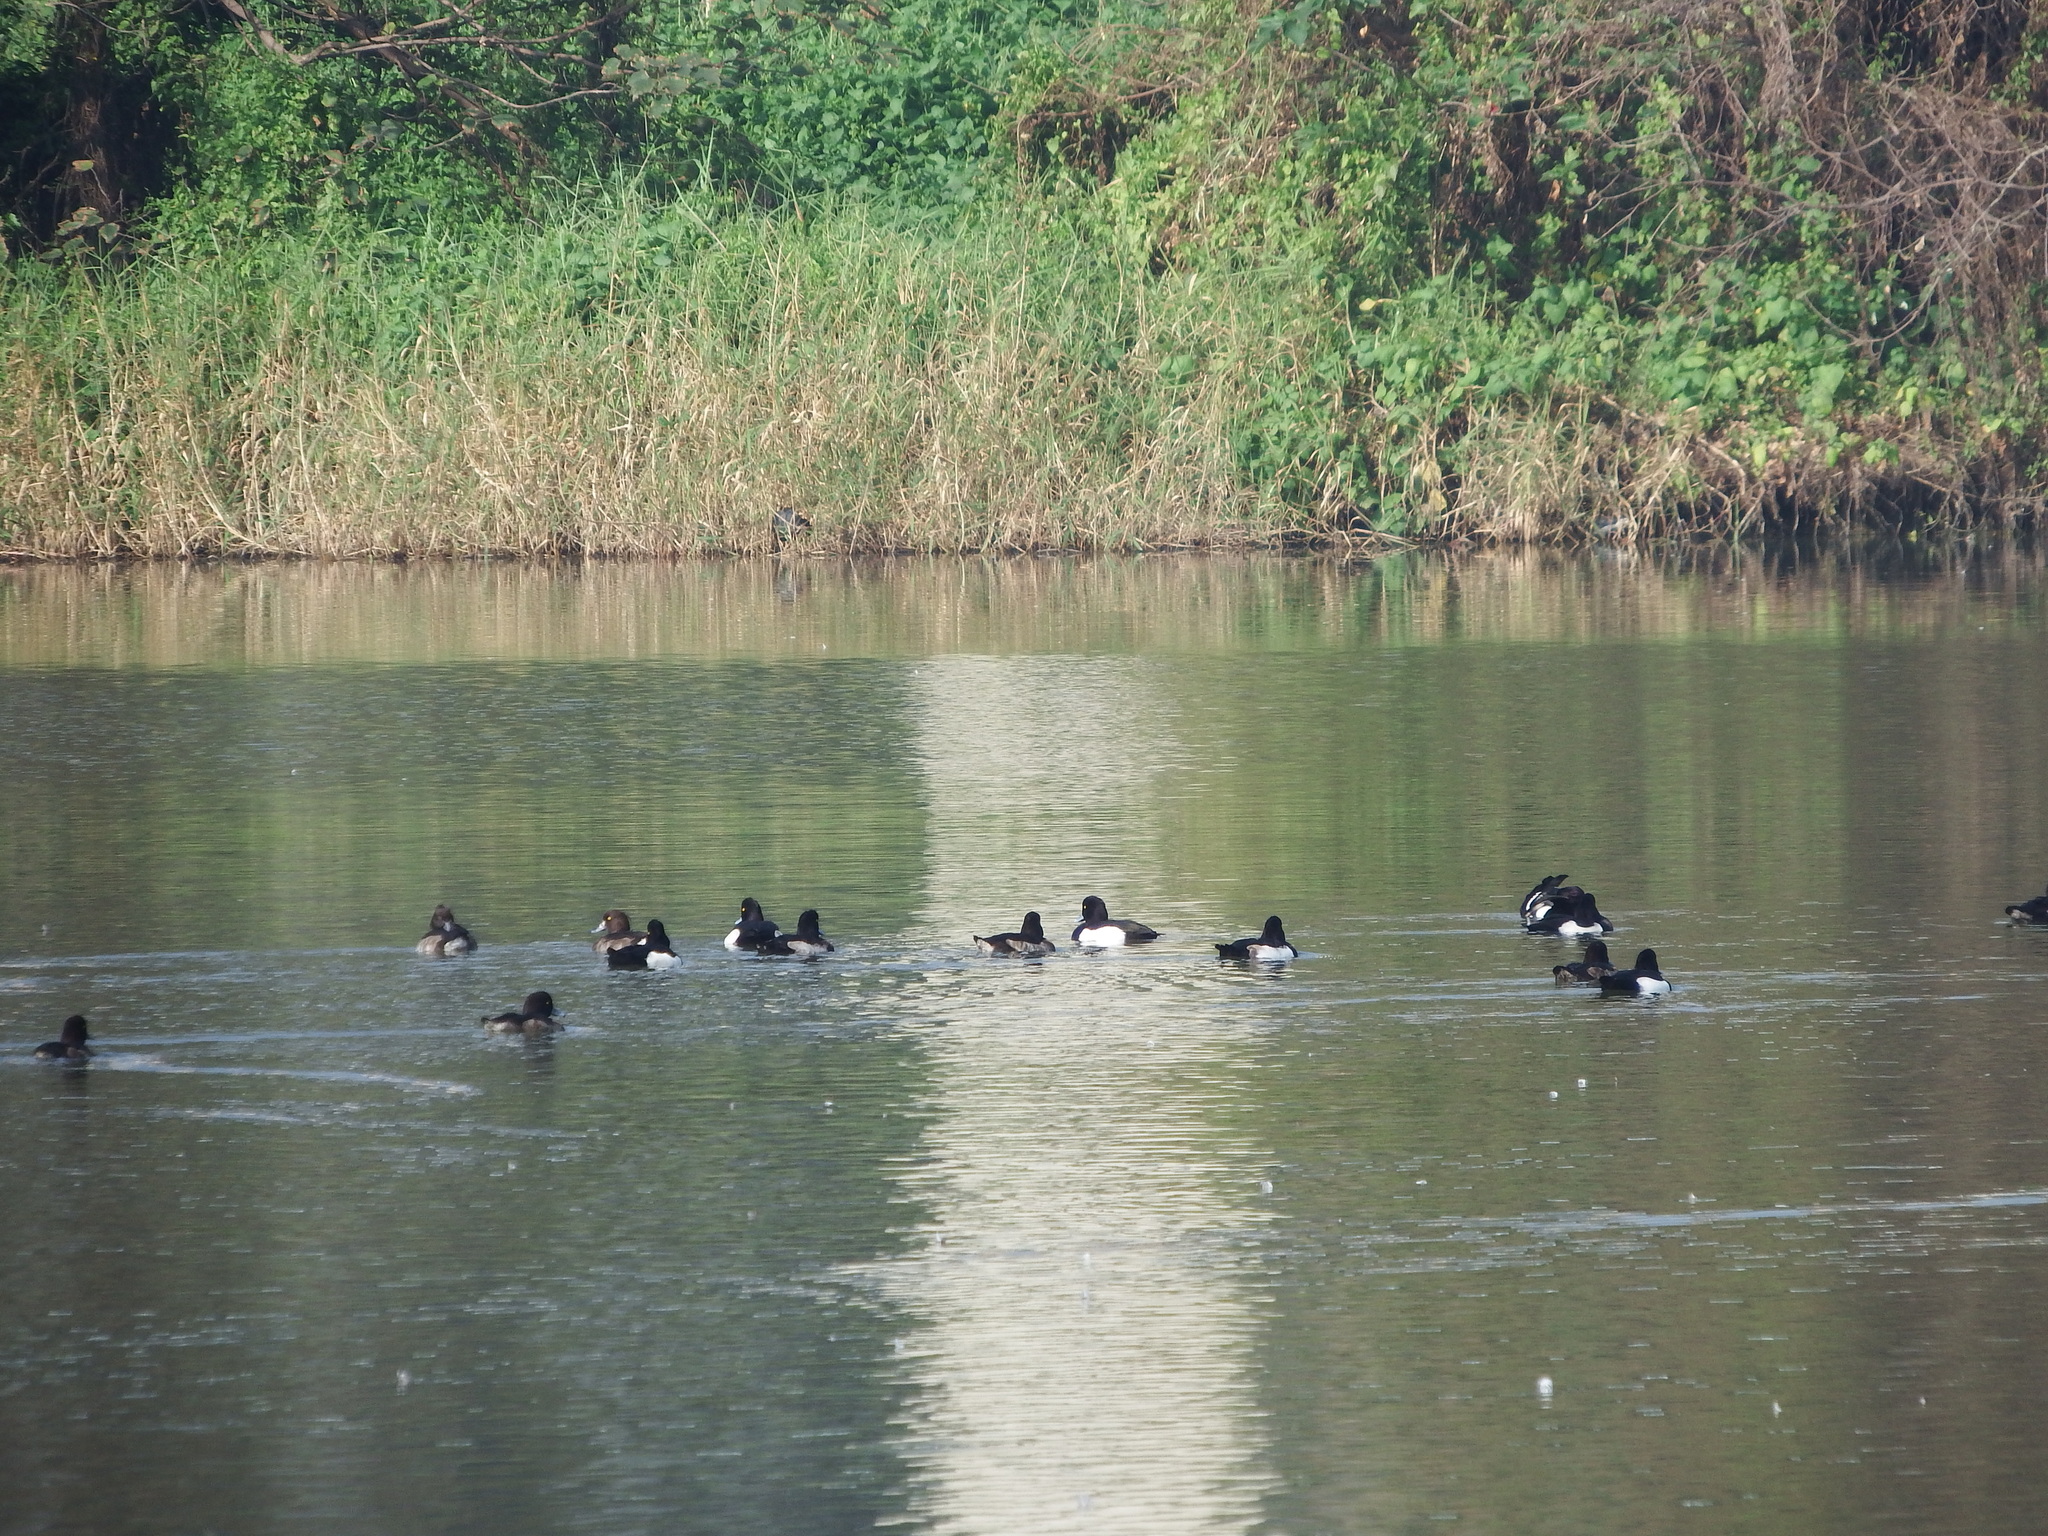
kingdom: Animalia
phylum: Chordata
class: Aves
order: Anseriformes
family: Anatidae
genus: Aythya
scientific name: Aythya fuligula
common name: Tufted duck
